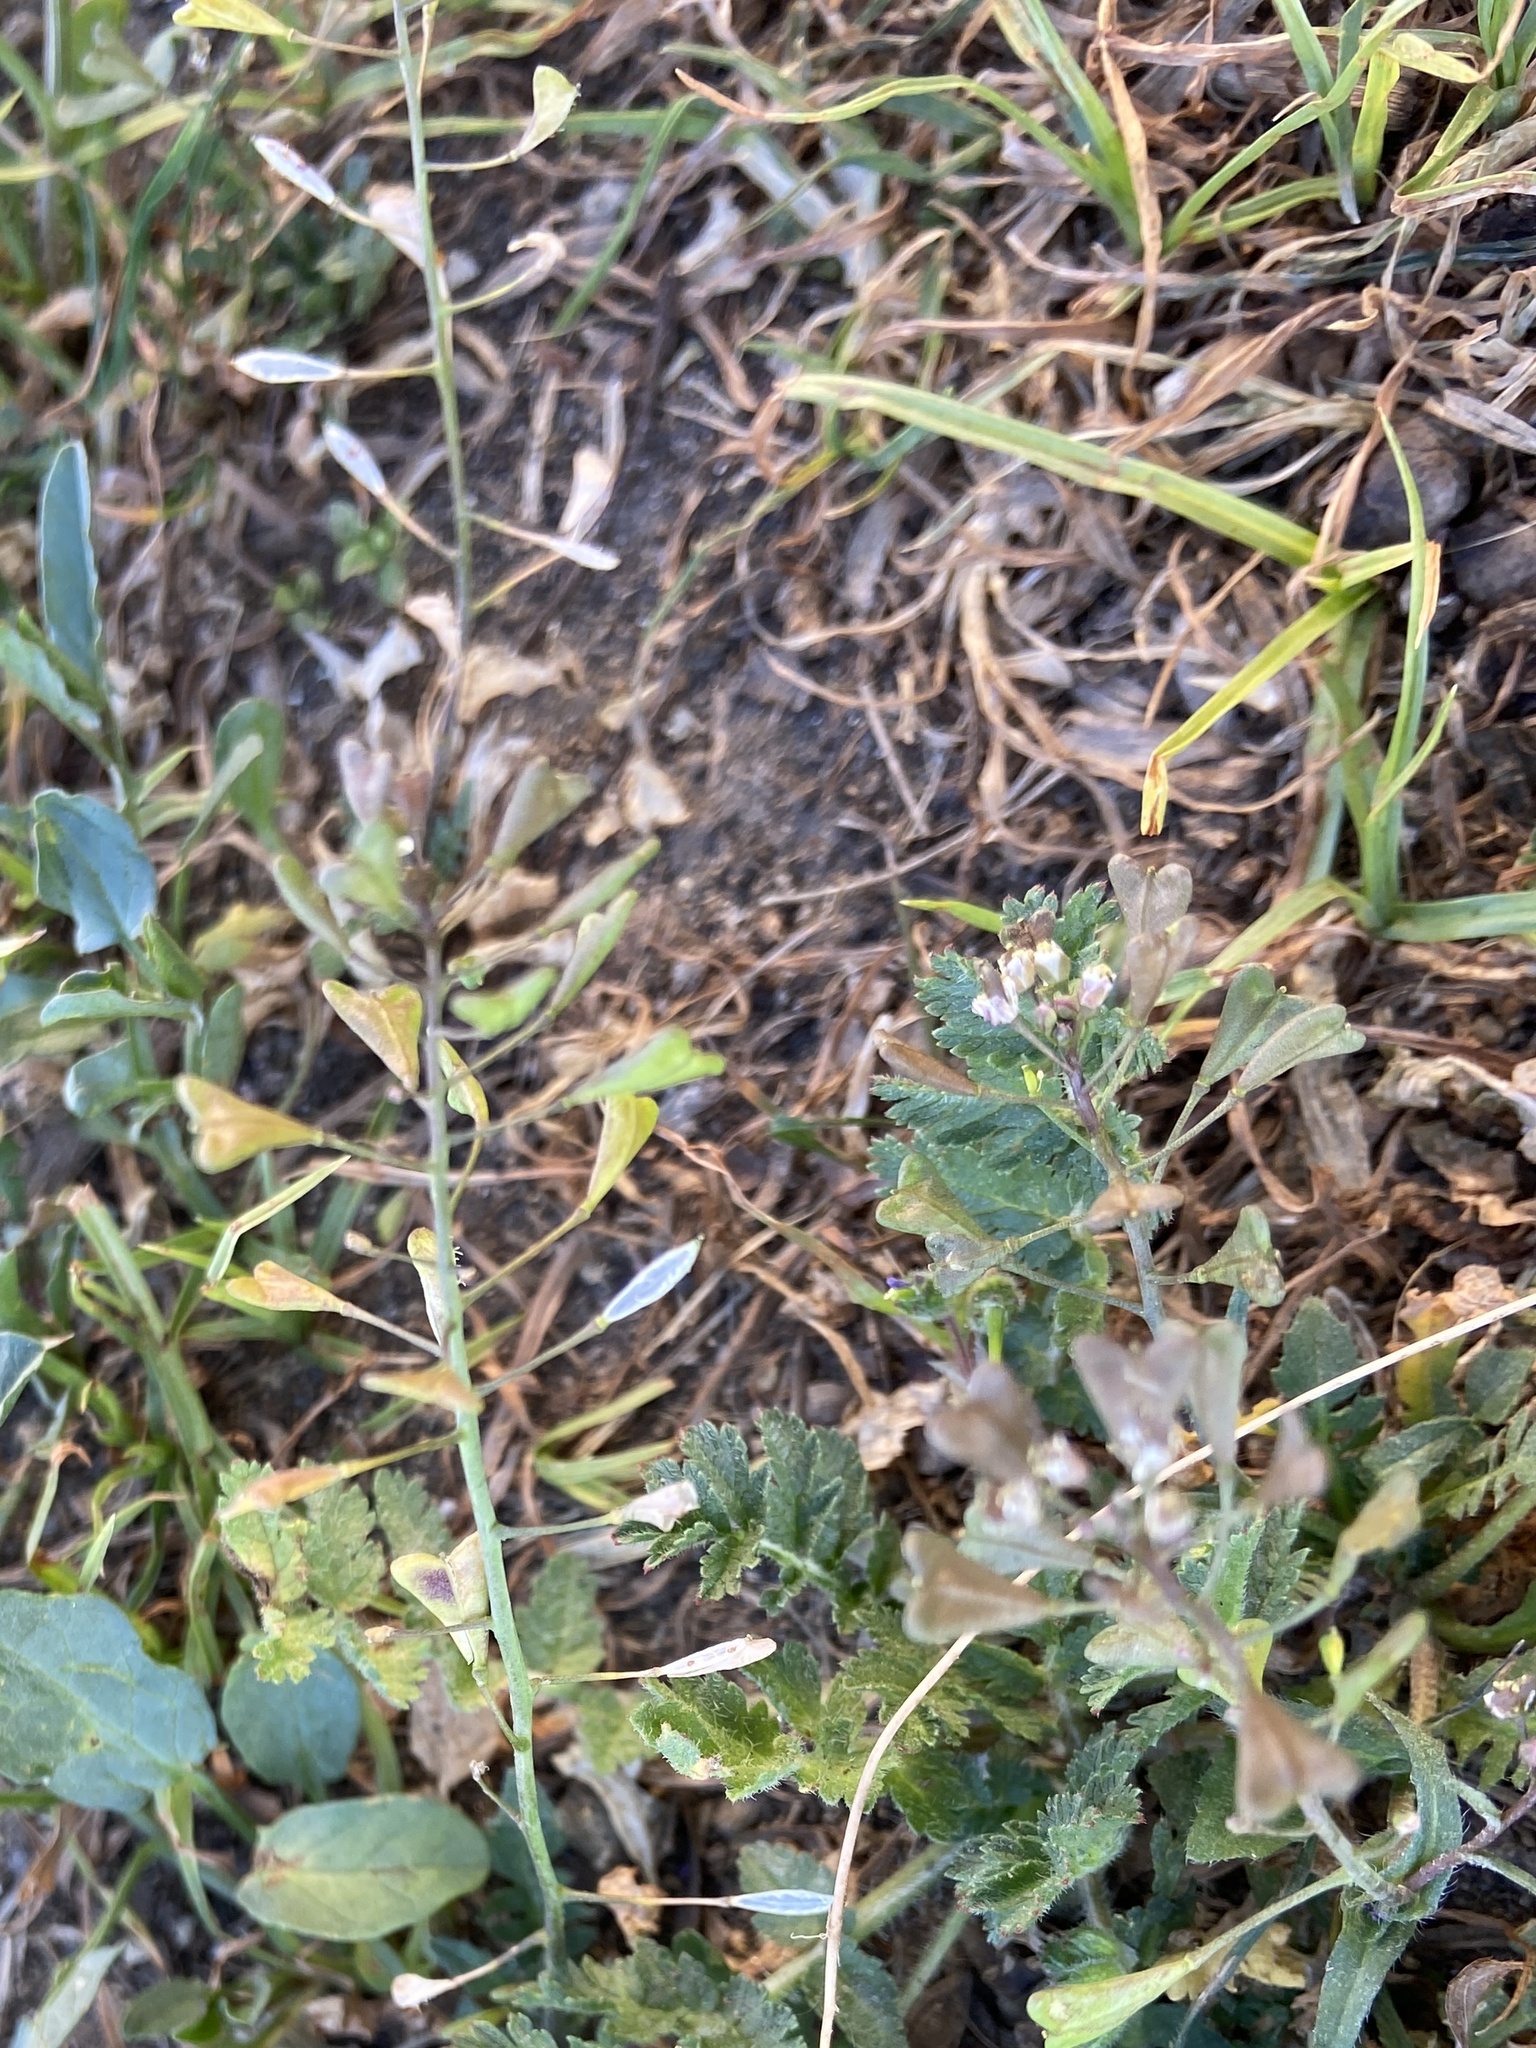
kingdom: Plantae
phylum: Tracheophyta
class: Magnoliopsida
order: Brassicales
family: Brassicaceae
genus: Capsella
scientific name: Capsella bursa-pastoris
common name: Shepherd's purse
